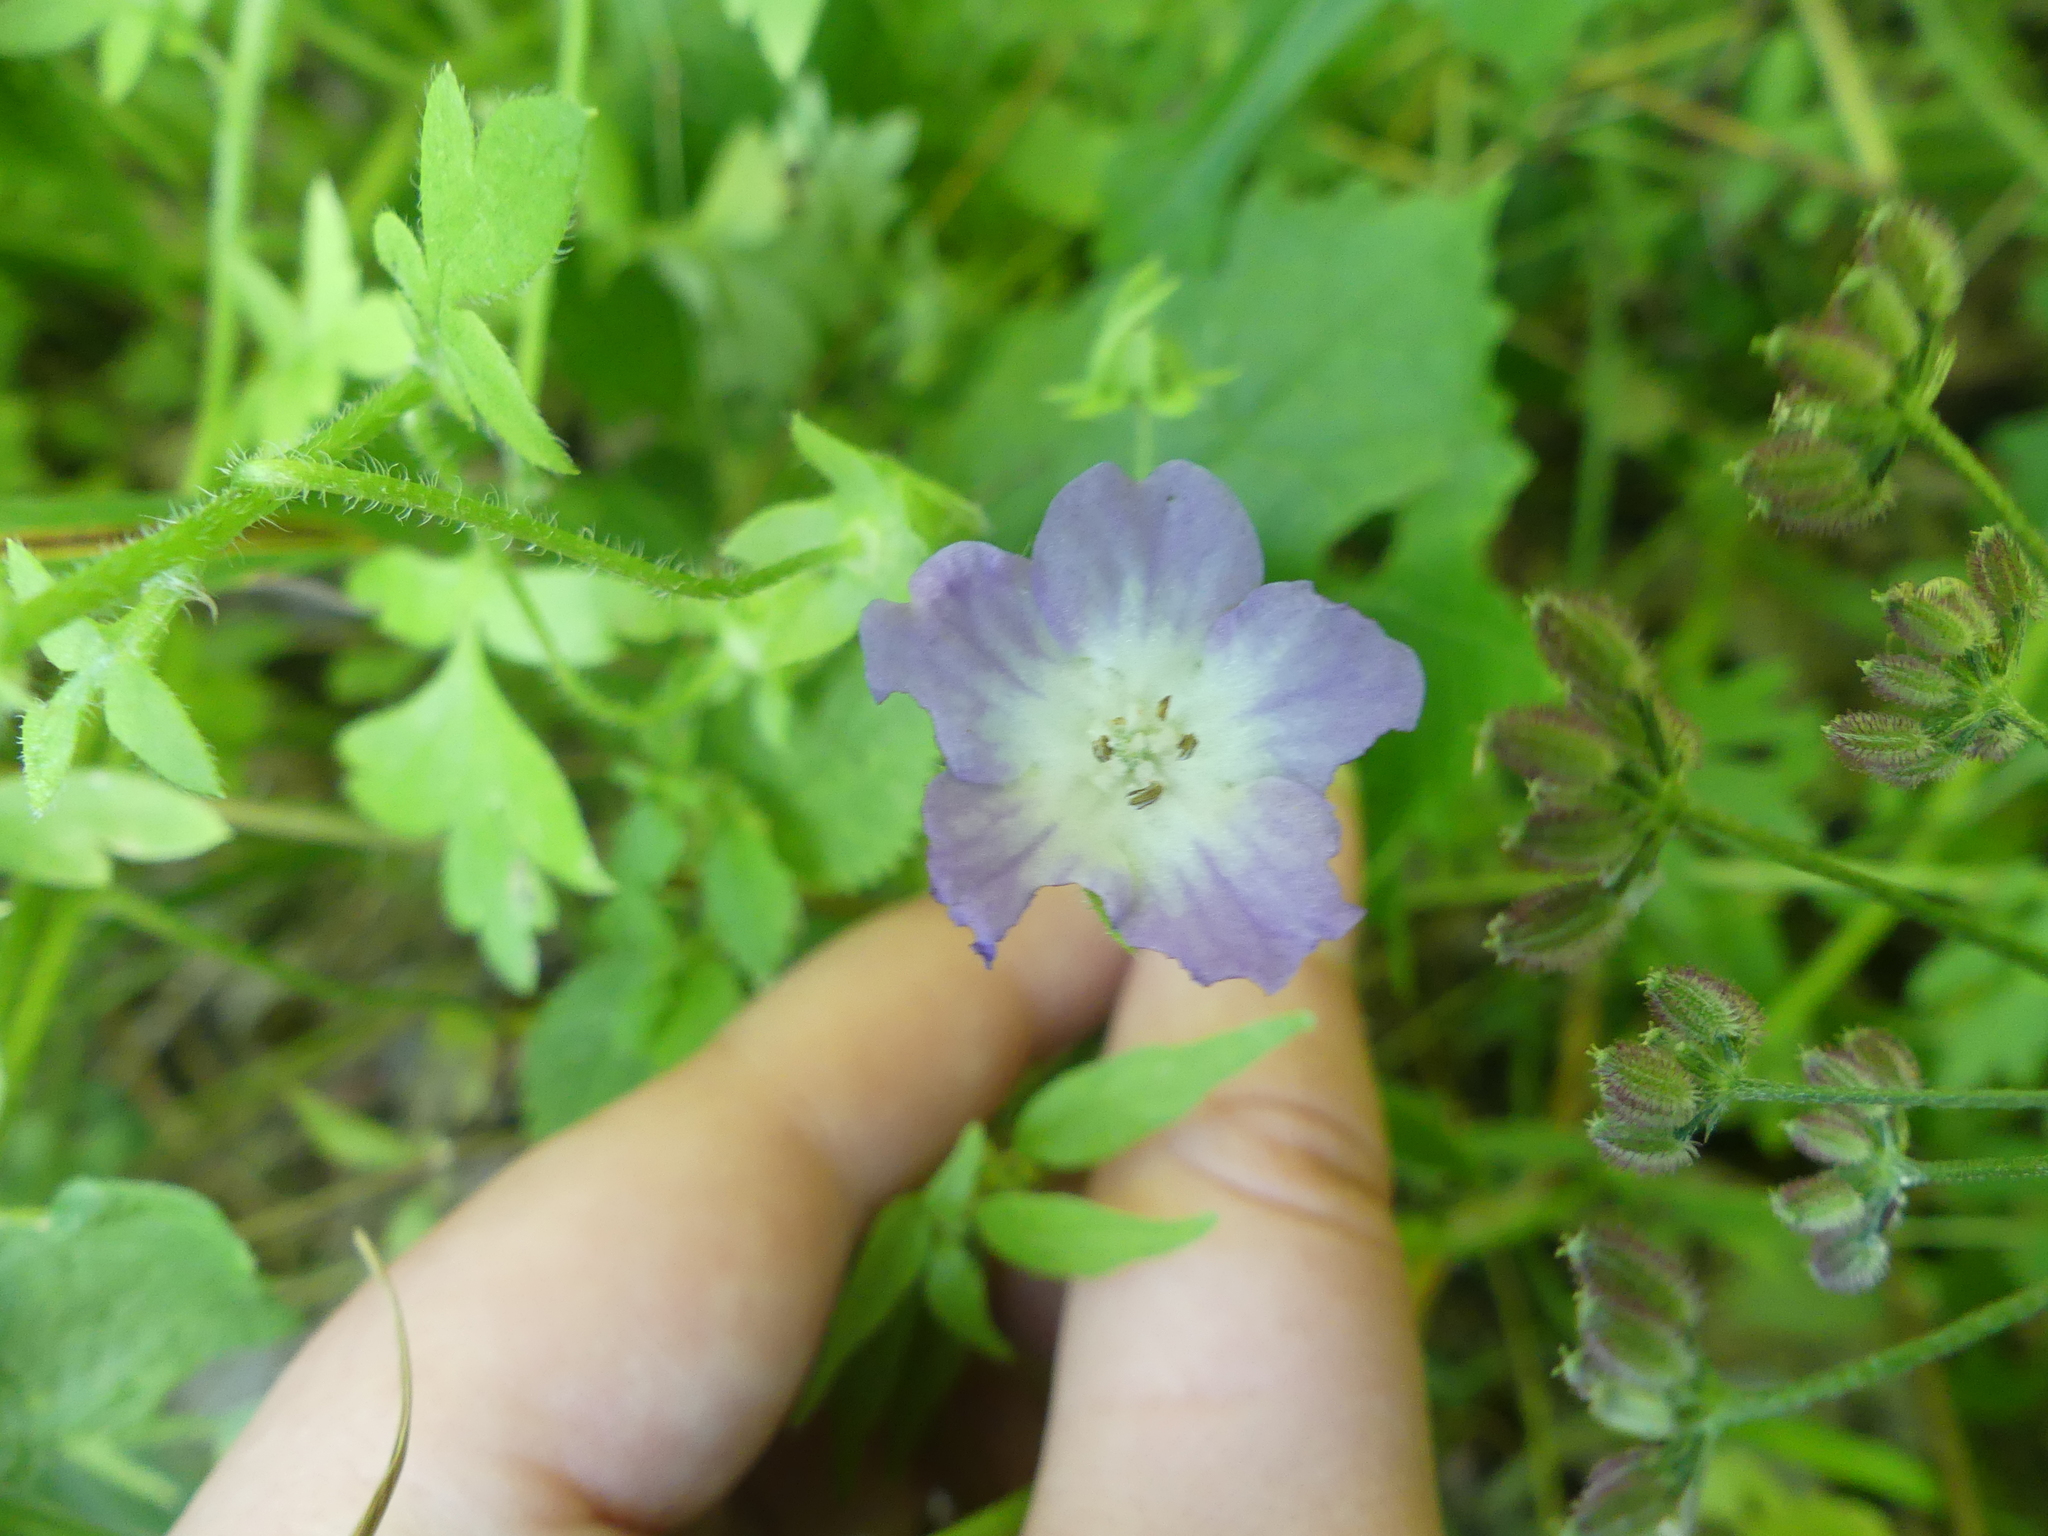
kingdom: Plantae
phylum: Tracheophyta
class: Magnoliopsida
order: Boraginales
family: Hydrophyllaceae
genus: Nemophila
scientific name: Nemophila phacelioides
